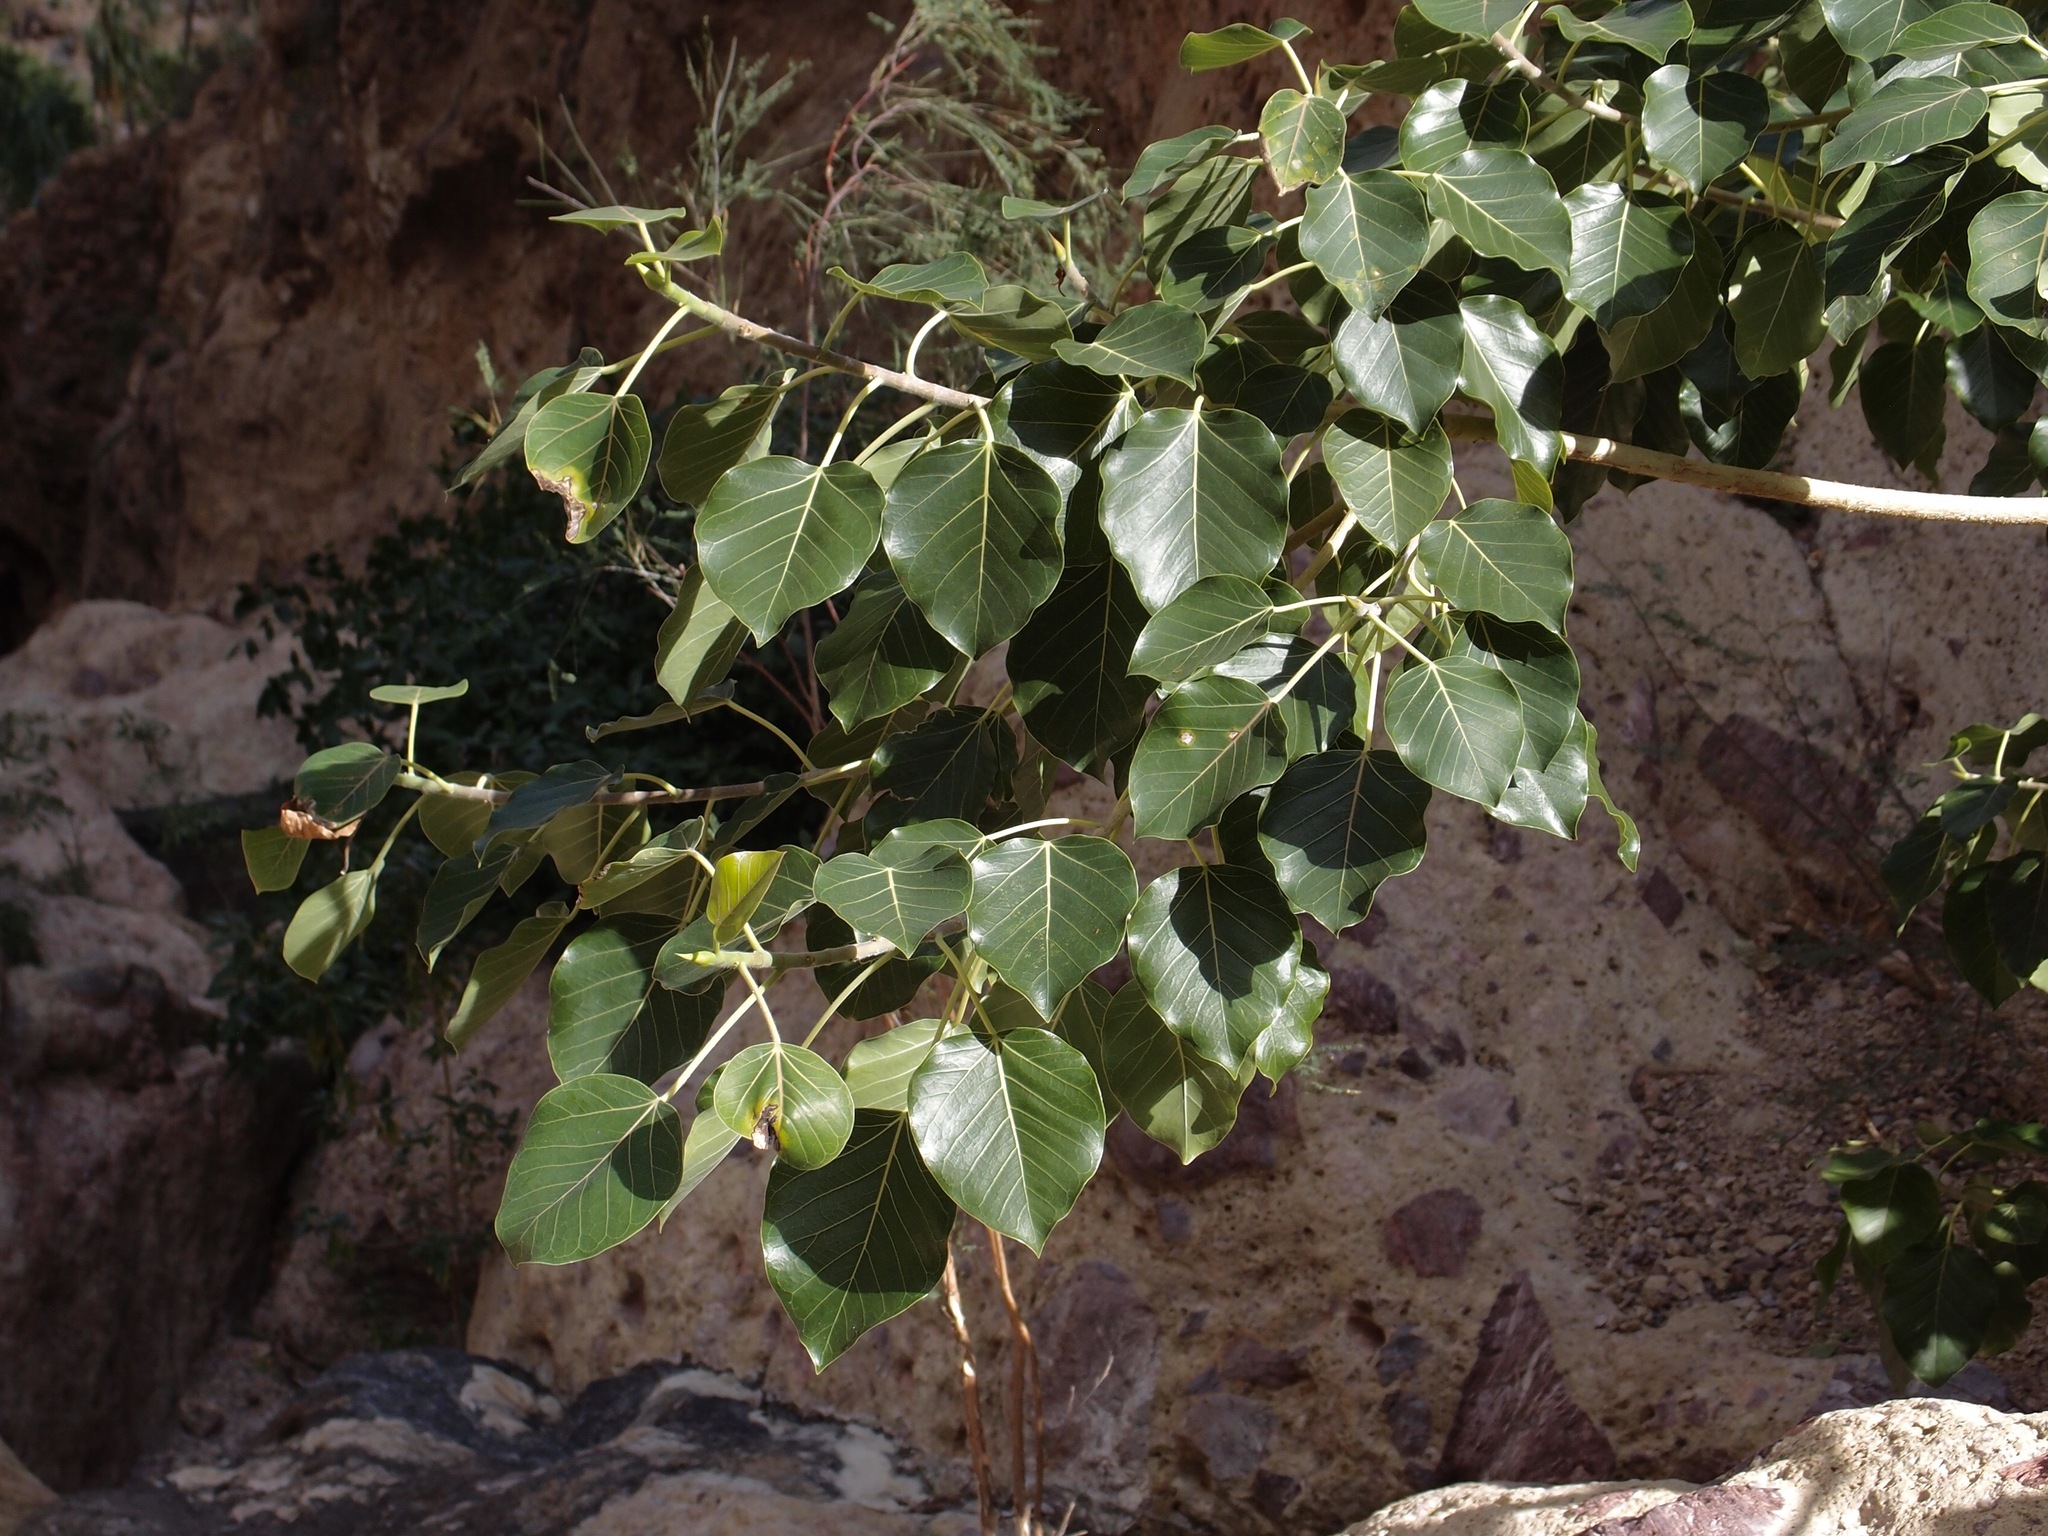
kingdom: Plantae
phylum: Tracheophyta
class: Magnoliopsida
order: Rosales
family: Moraceae
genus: Ficus
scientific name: Ficus petiolaris
